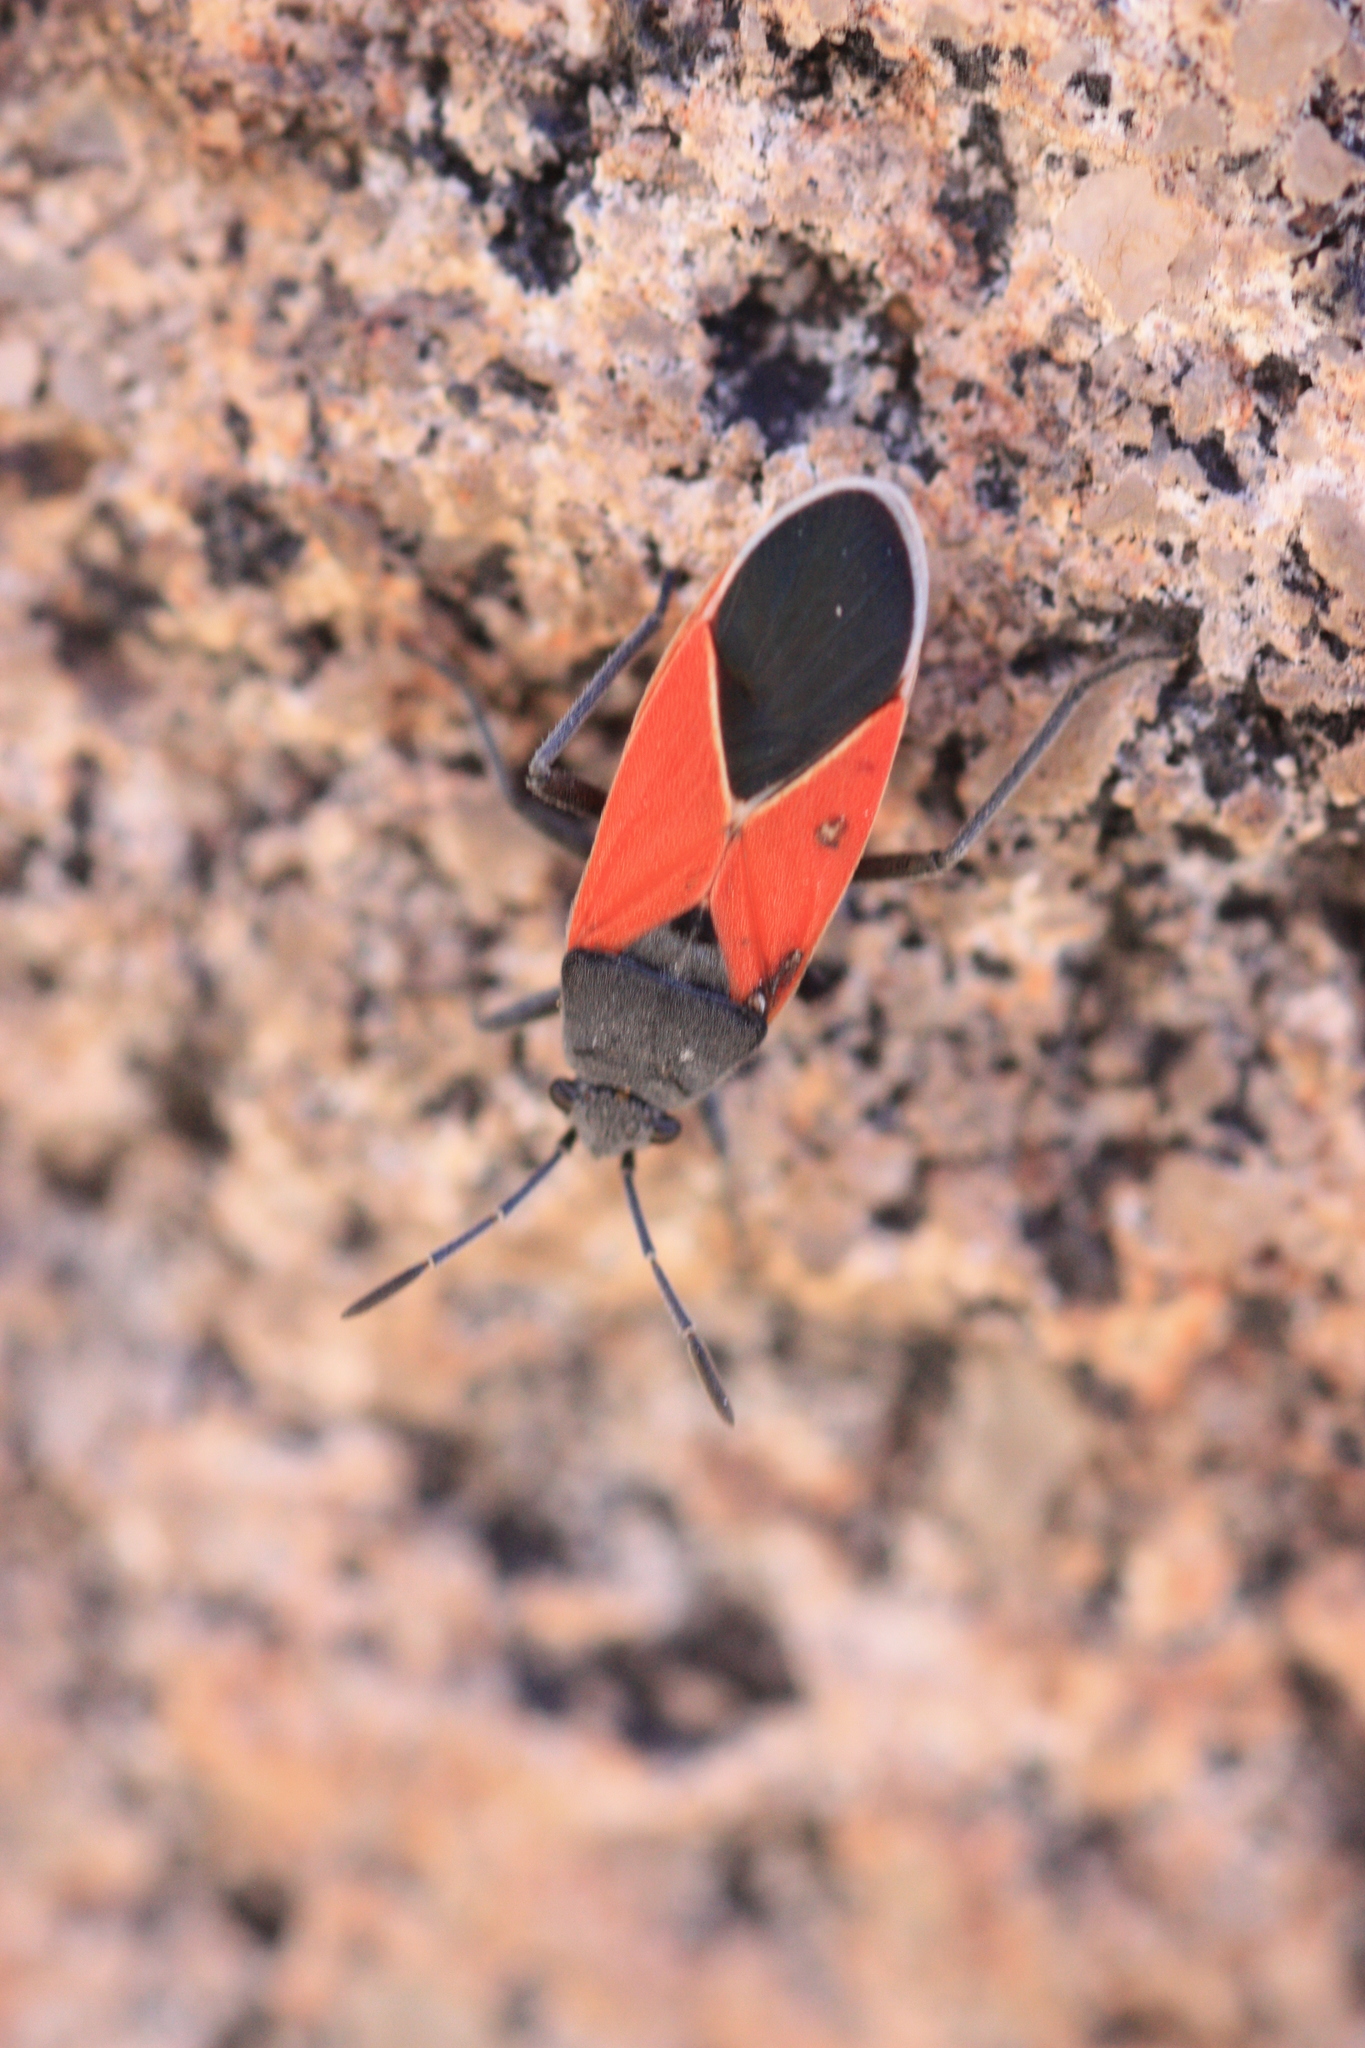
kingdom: Animalia
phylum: Arthropoda
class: Insecta
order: Hemiptera
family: Lygaeidae
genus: Melanopleurus
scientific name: Melanopleurus belfragei
